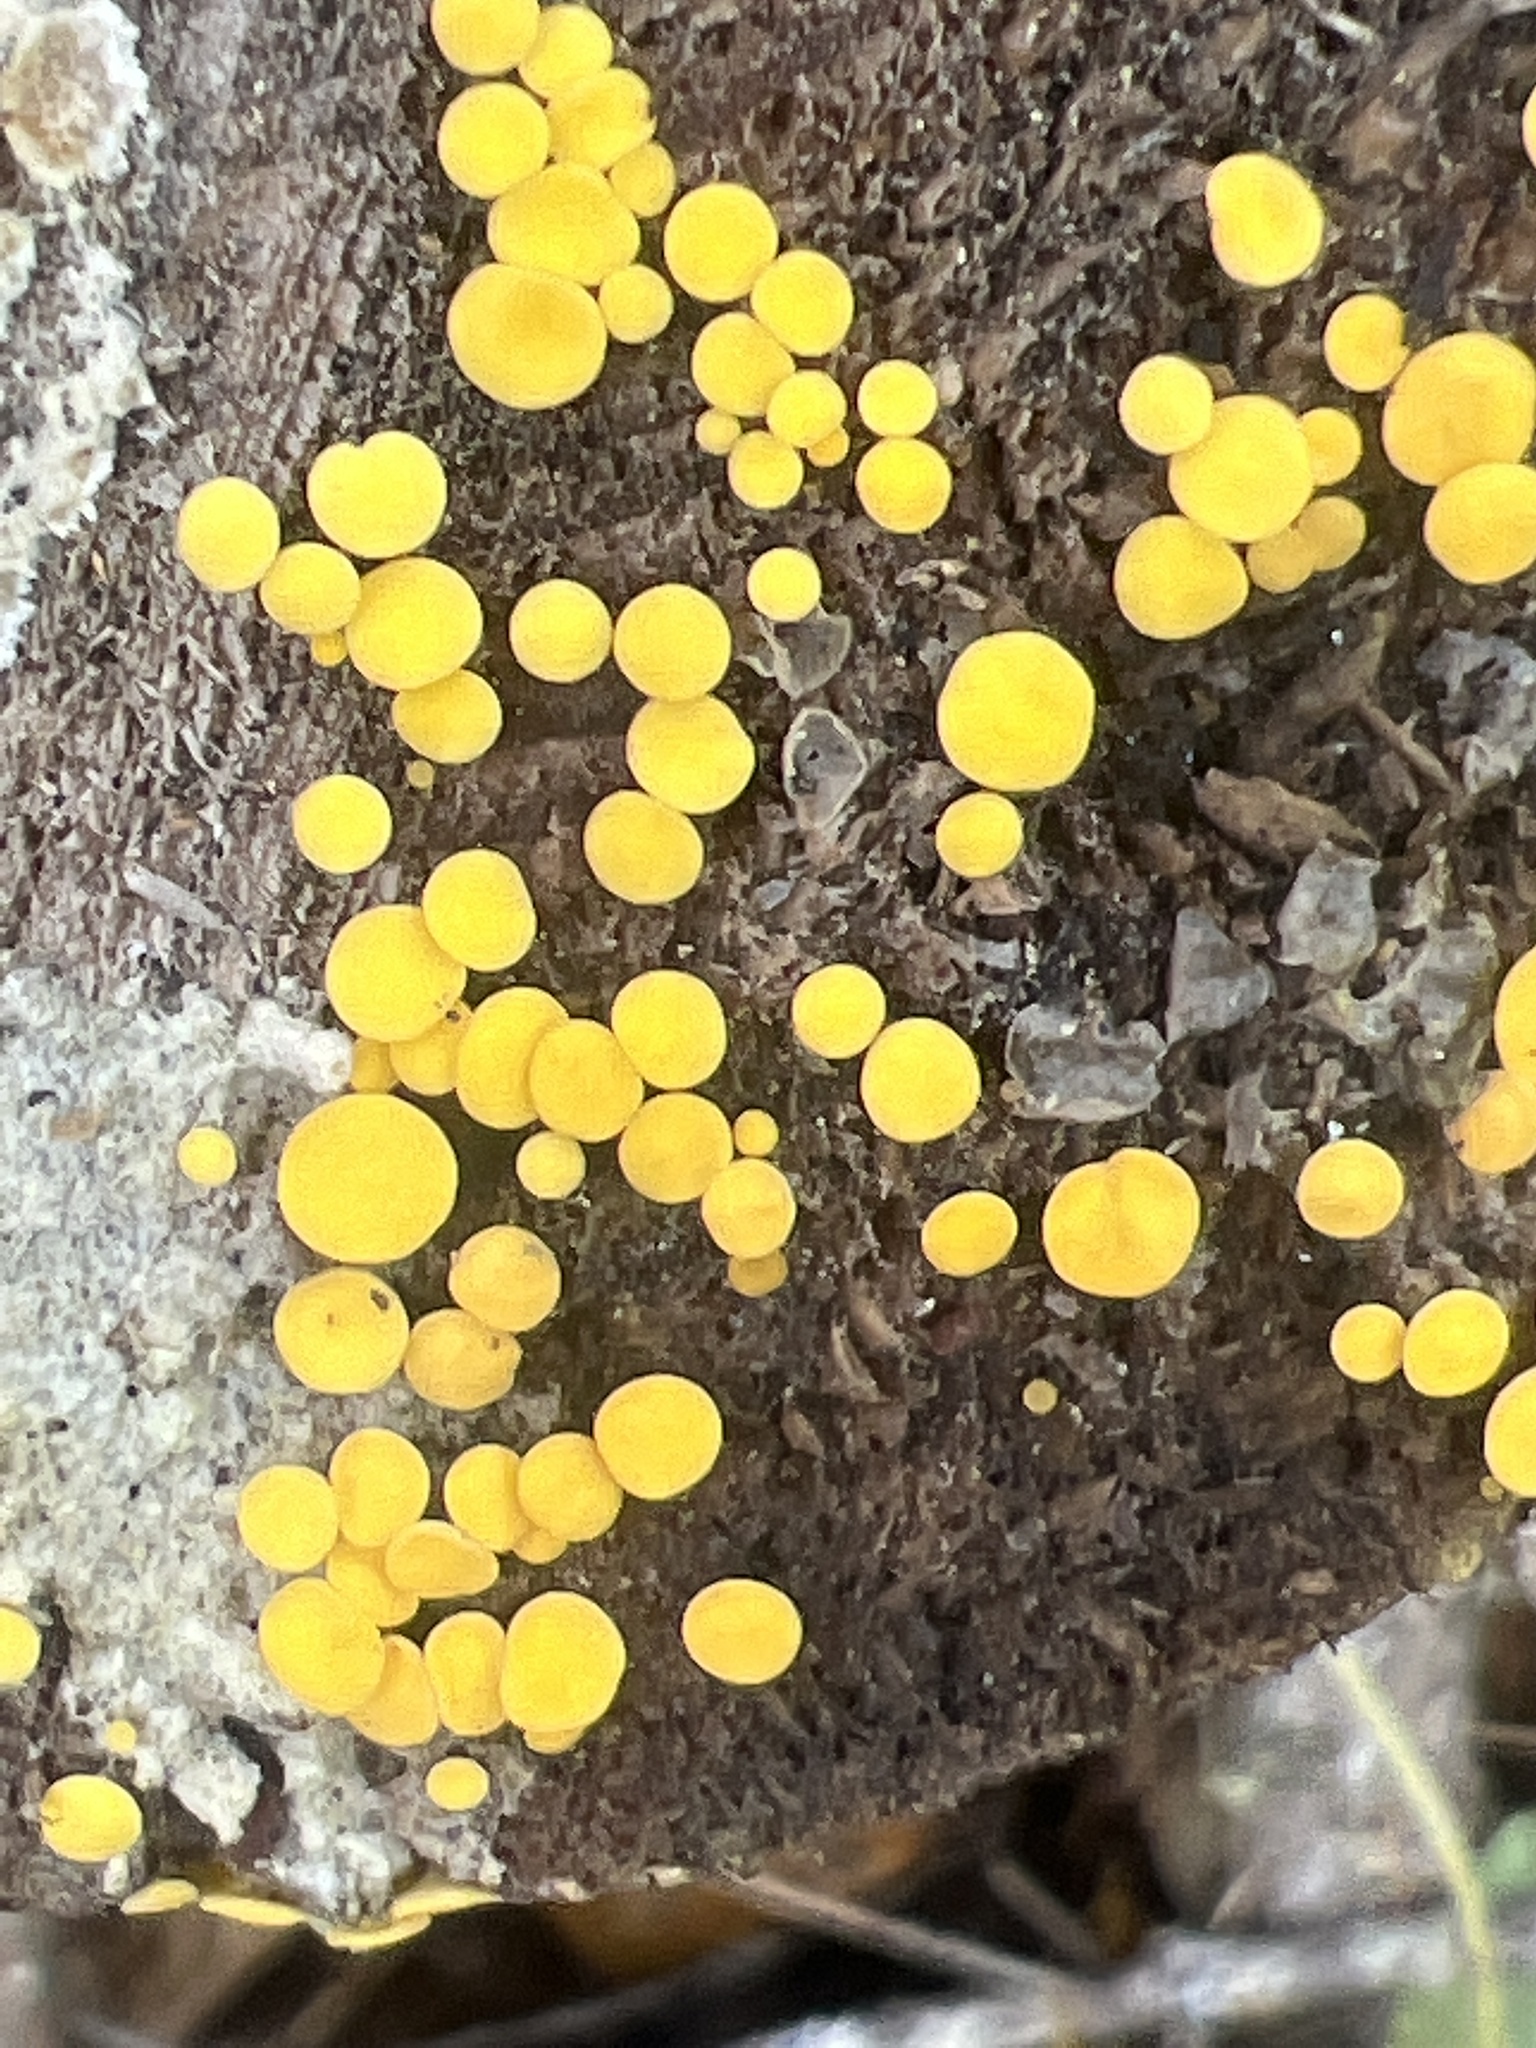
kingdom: Fungi
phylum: Ascomycota
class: Leotiomycetes
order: Helotiales
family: Pezizellaceae
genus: Calycina
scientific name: Calycina citrina
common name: Yellow fairy cups
